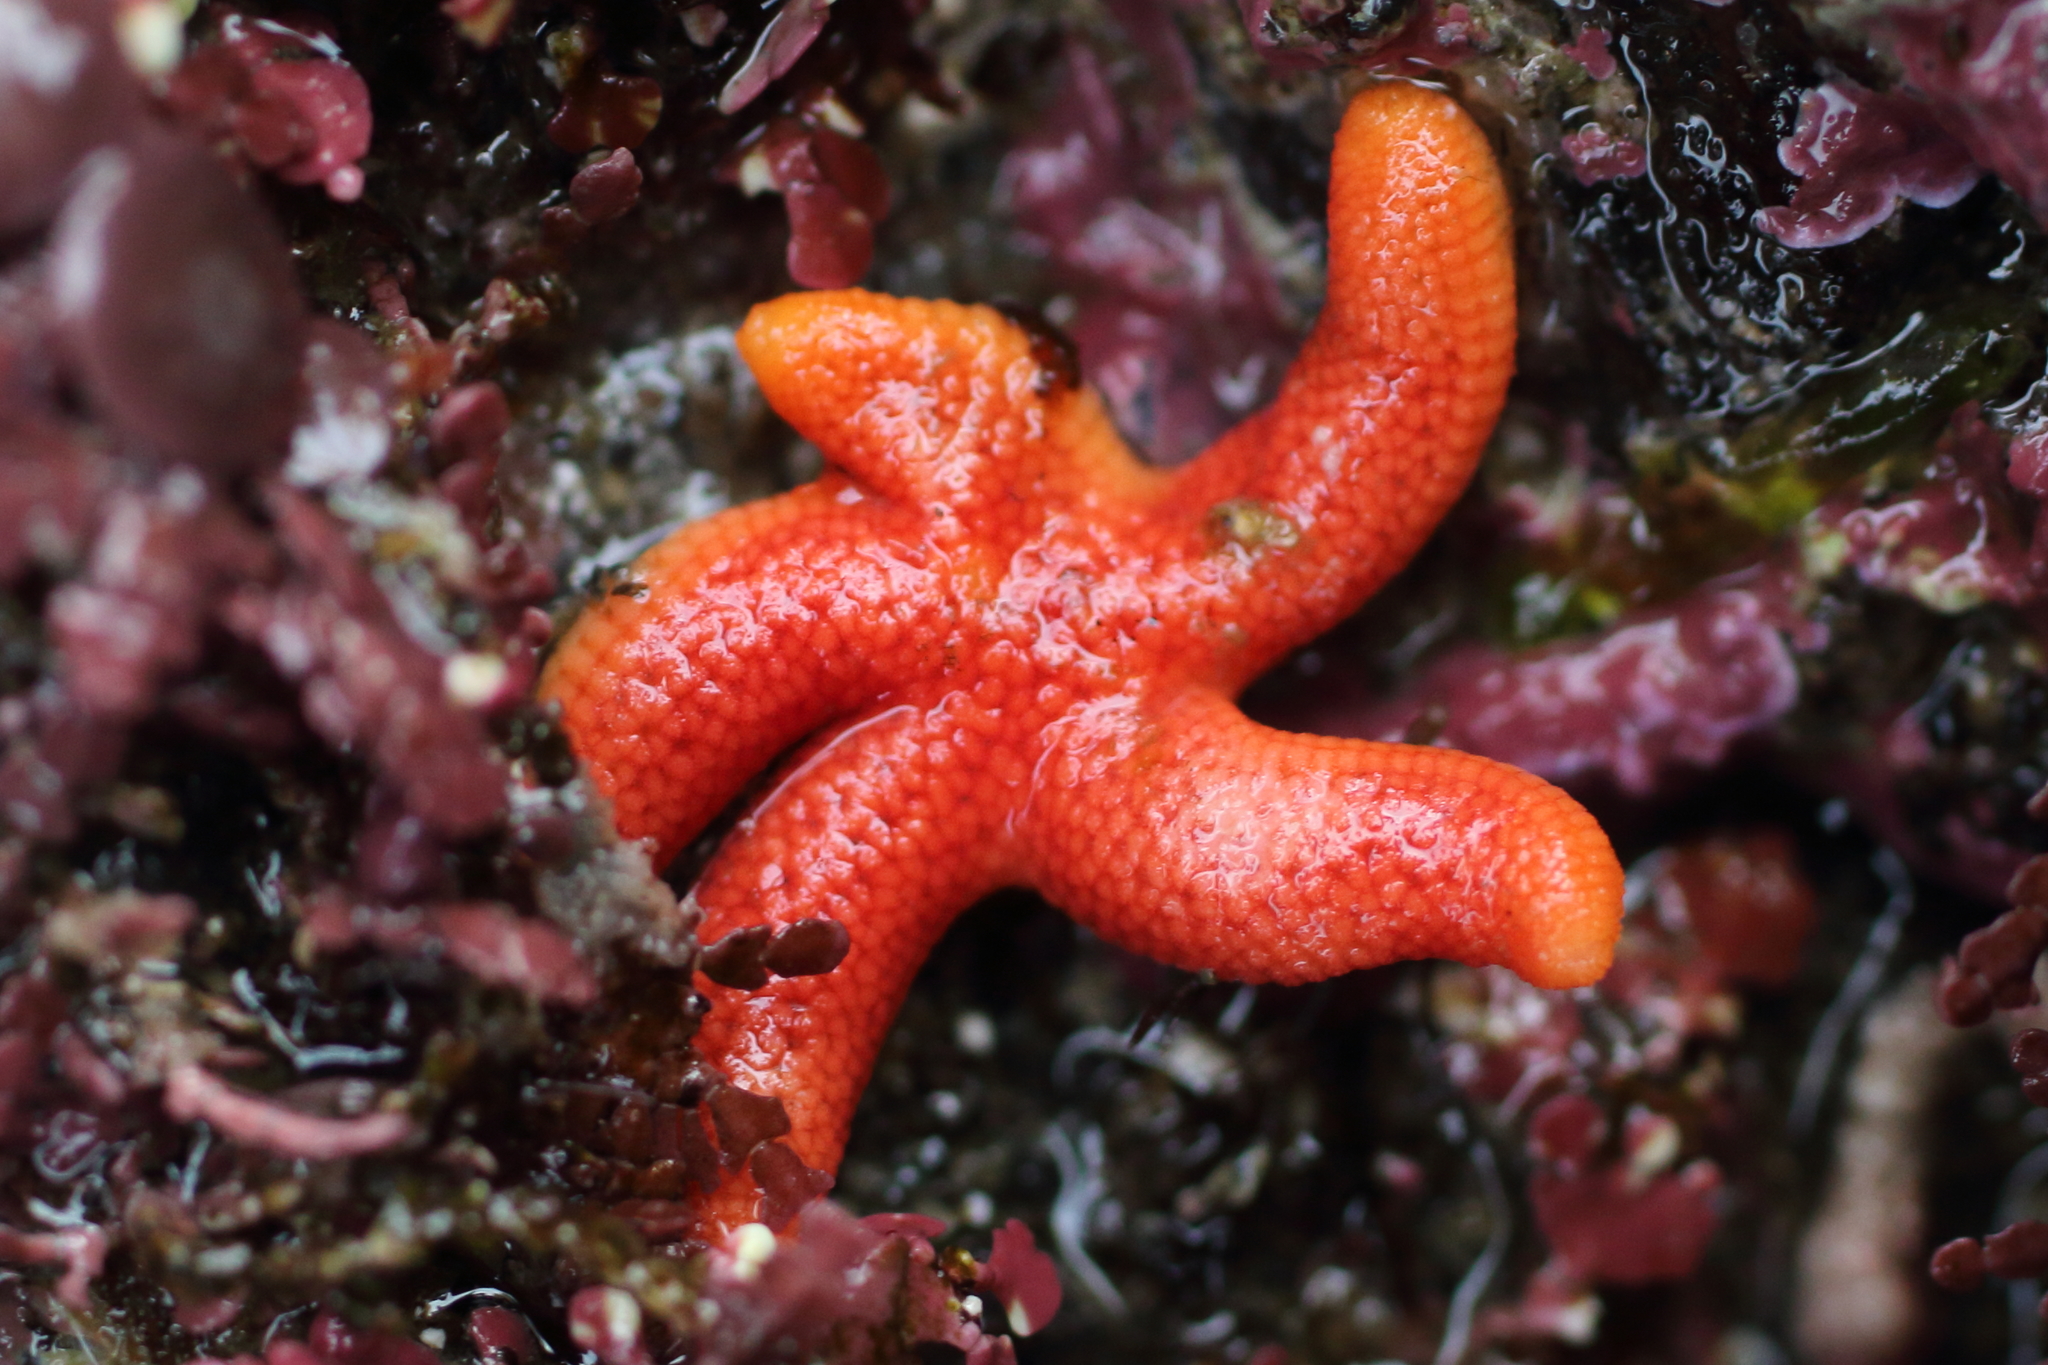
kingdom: Animalia
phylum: Echinodermata
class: Asteroidea
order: Spinulosida
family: Echinasteridae
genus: Henricia
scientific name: Henricia leviuscula
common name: Pacific blood star
